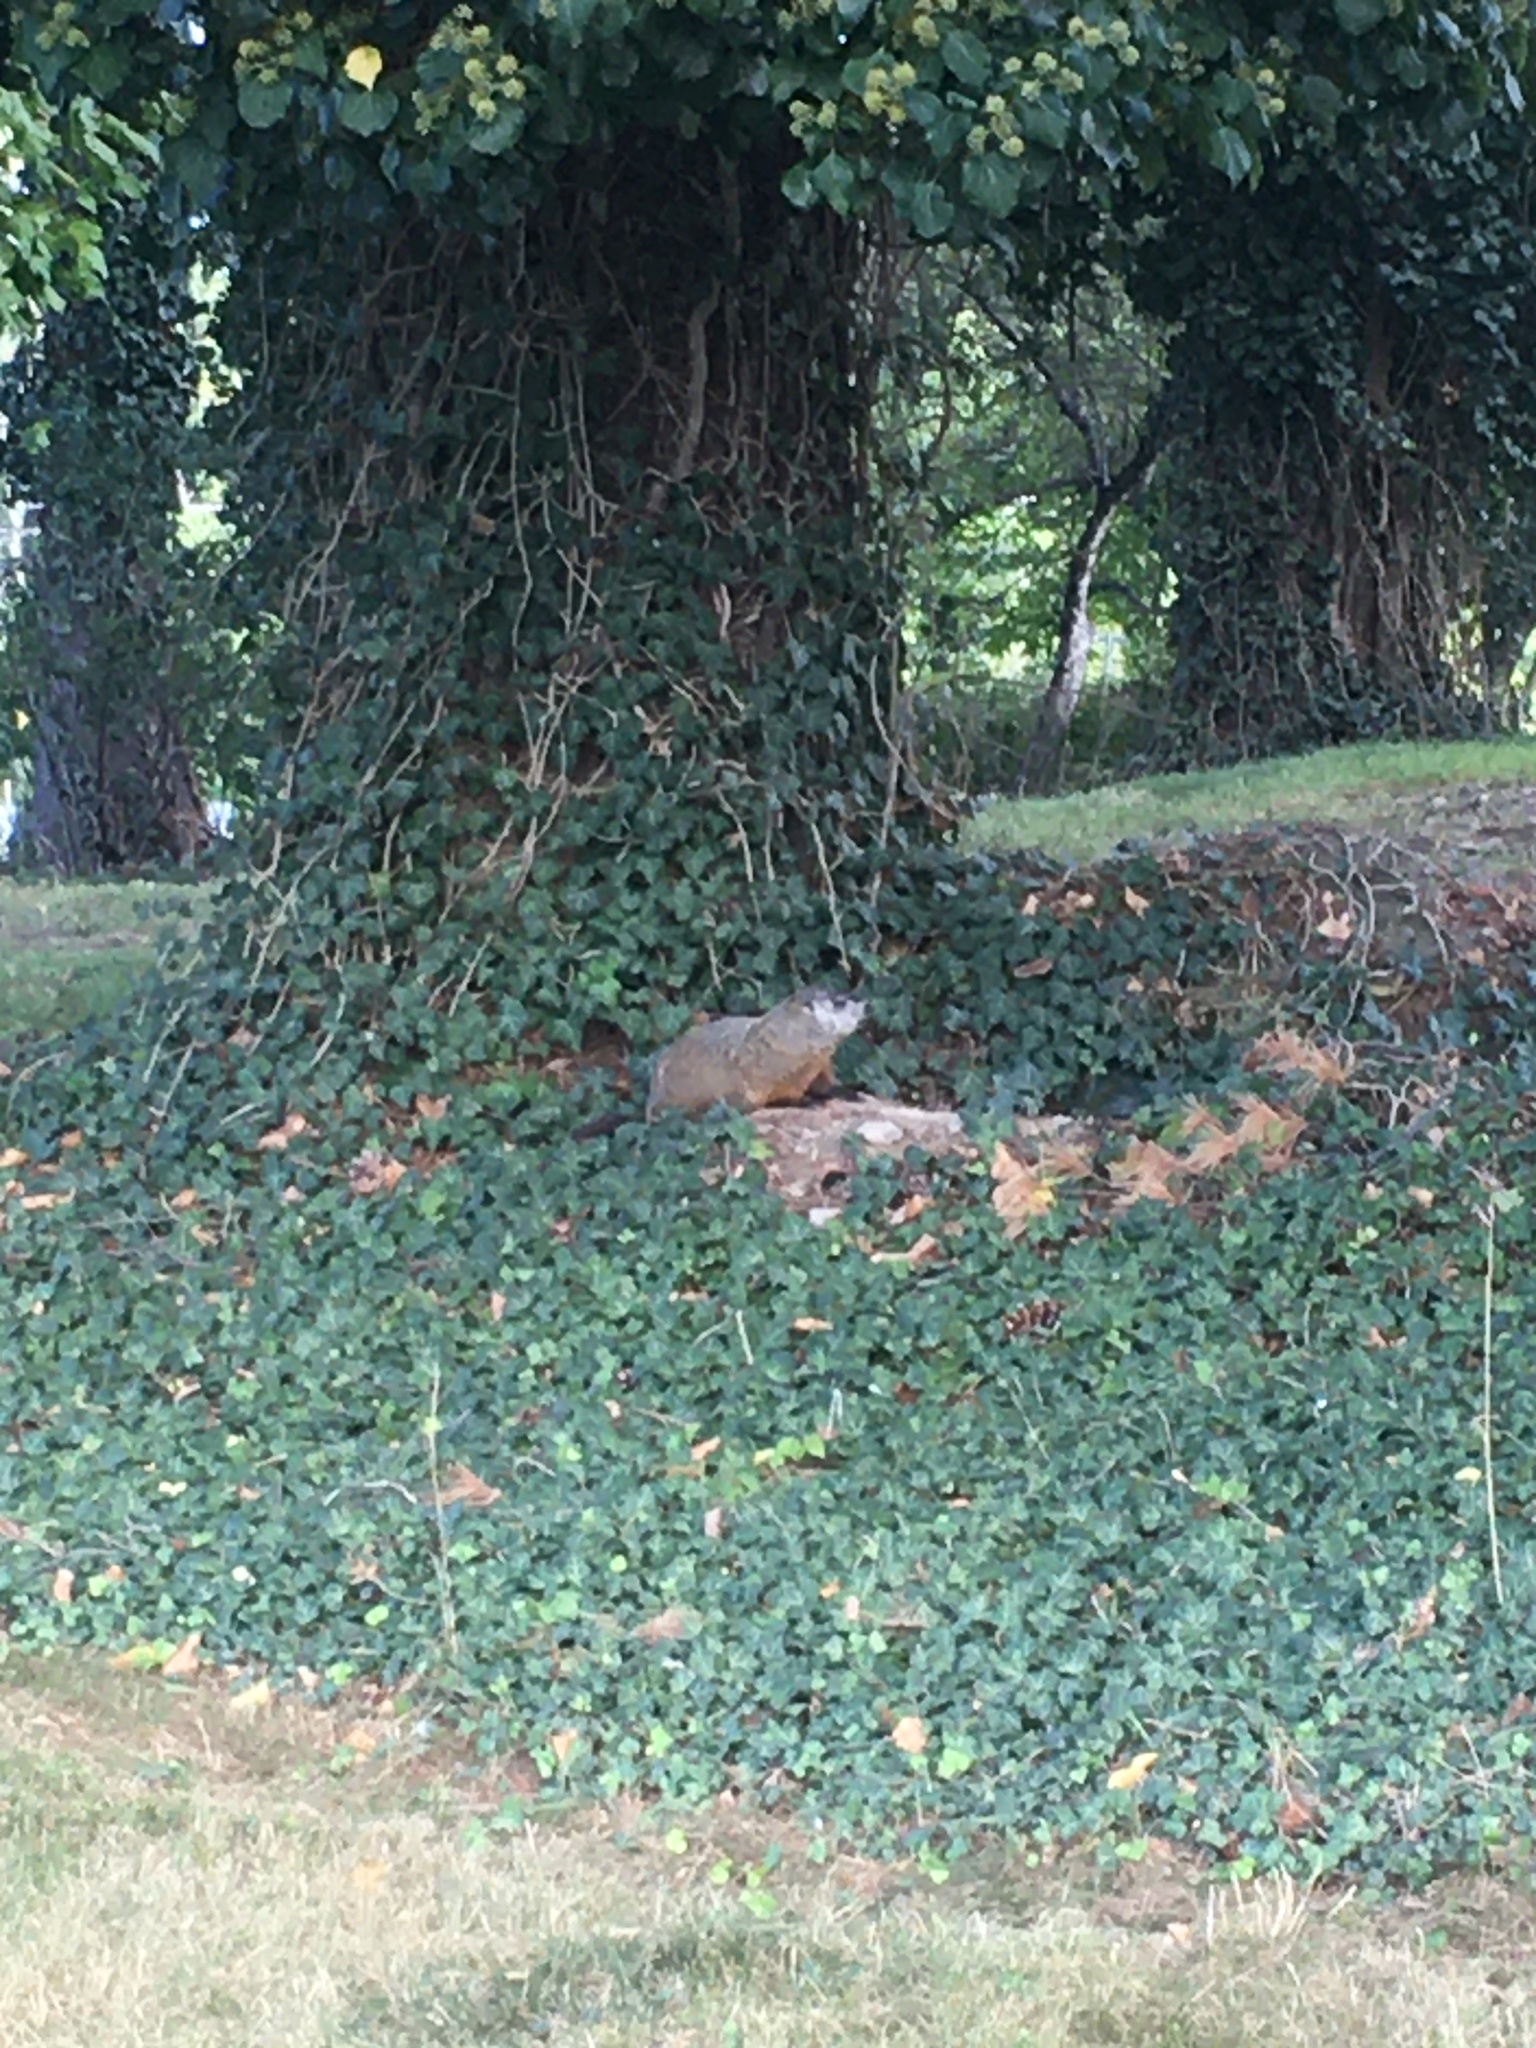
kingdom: Animalia
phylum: Chordata
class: Mammalia
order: Rodentia
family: Sciuridae
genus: Marmota
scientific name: Marmota monax
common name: Groundhog
